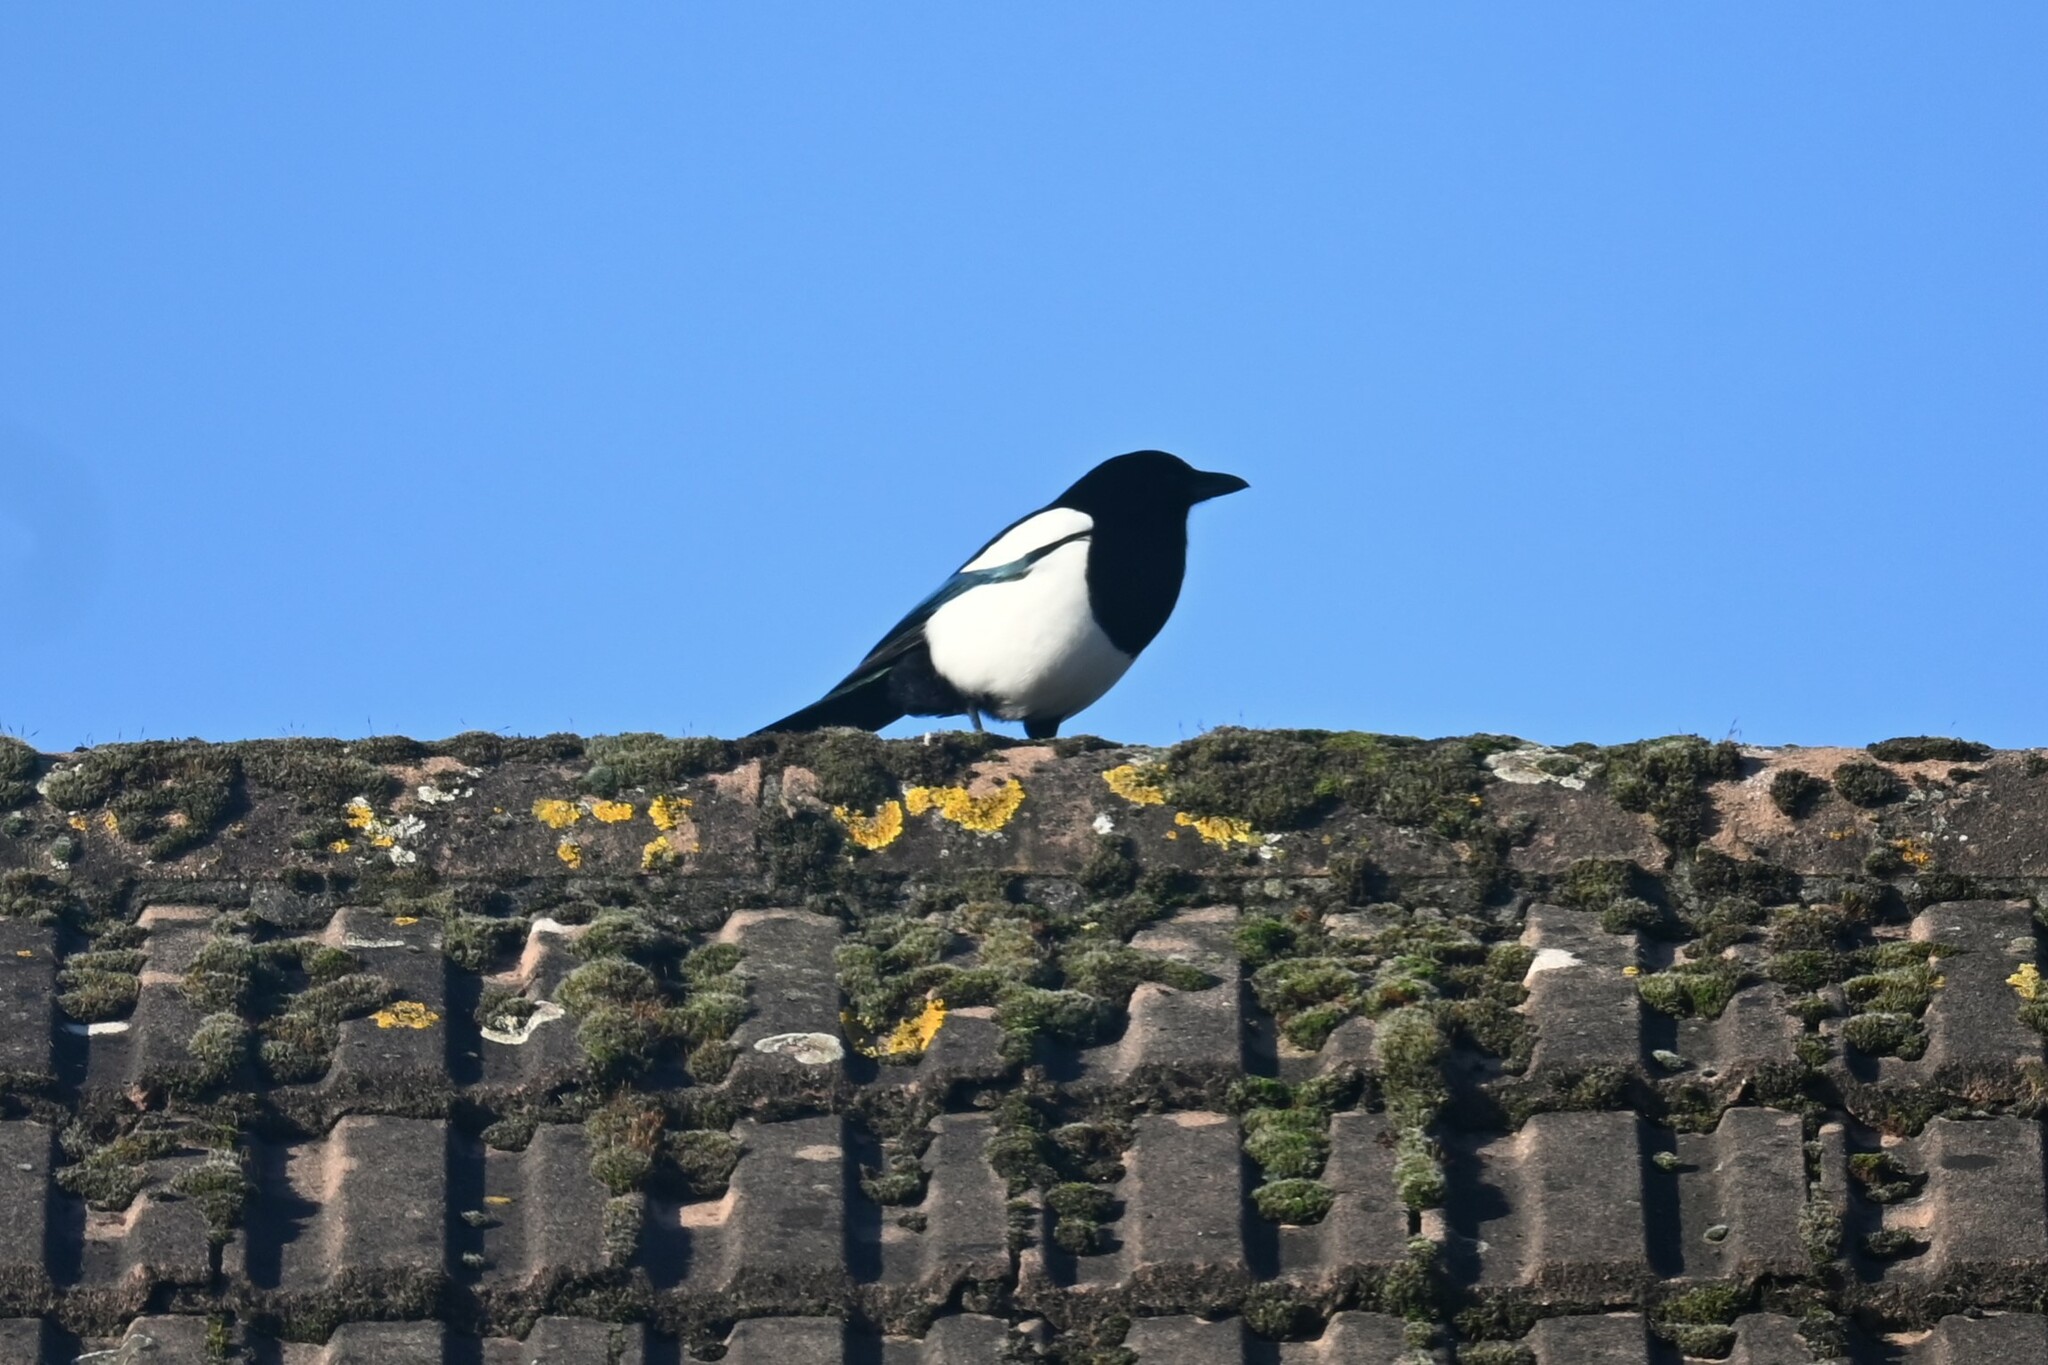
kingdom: Animalia
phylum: Chordata
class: Aves
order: Passeriformes
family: Corvidae
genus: Pica
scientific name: Pica pica
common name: Eurasian magpie
